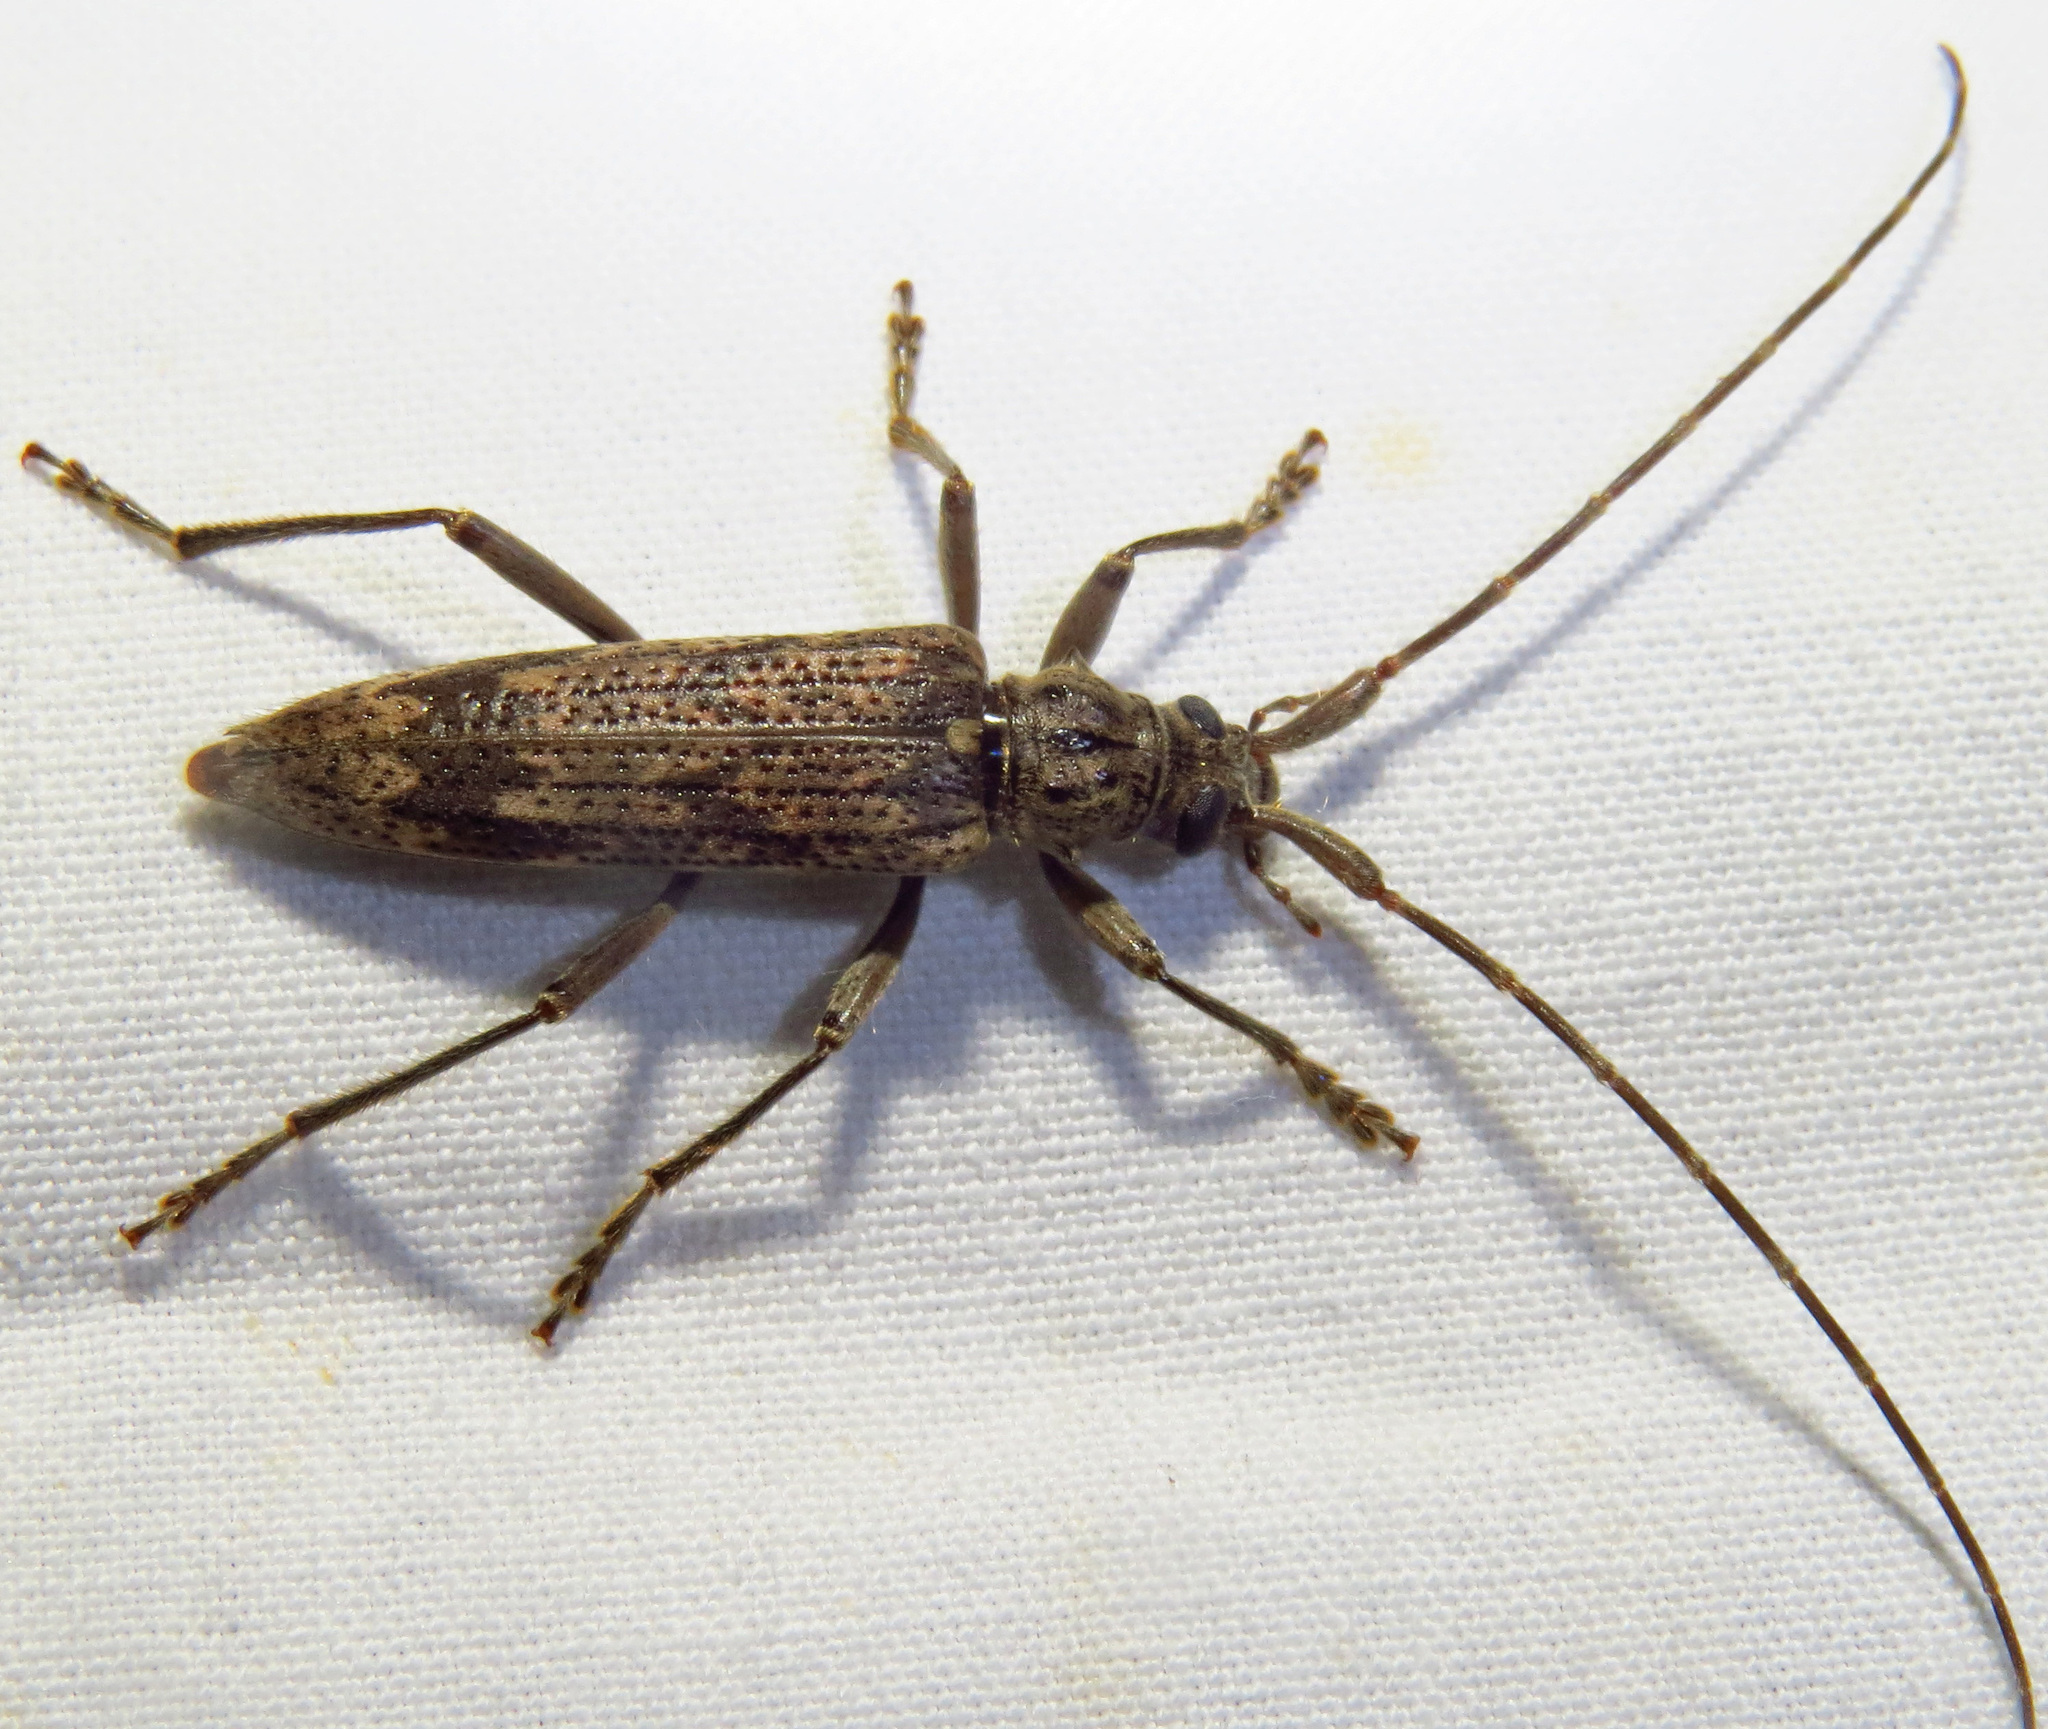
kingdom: Animalia
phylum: Arthropoda
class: Insecta
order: Coleoptera
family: Cerambycidae
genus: Elytrimitatrix
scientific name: Elytrimitatrix undata
